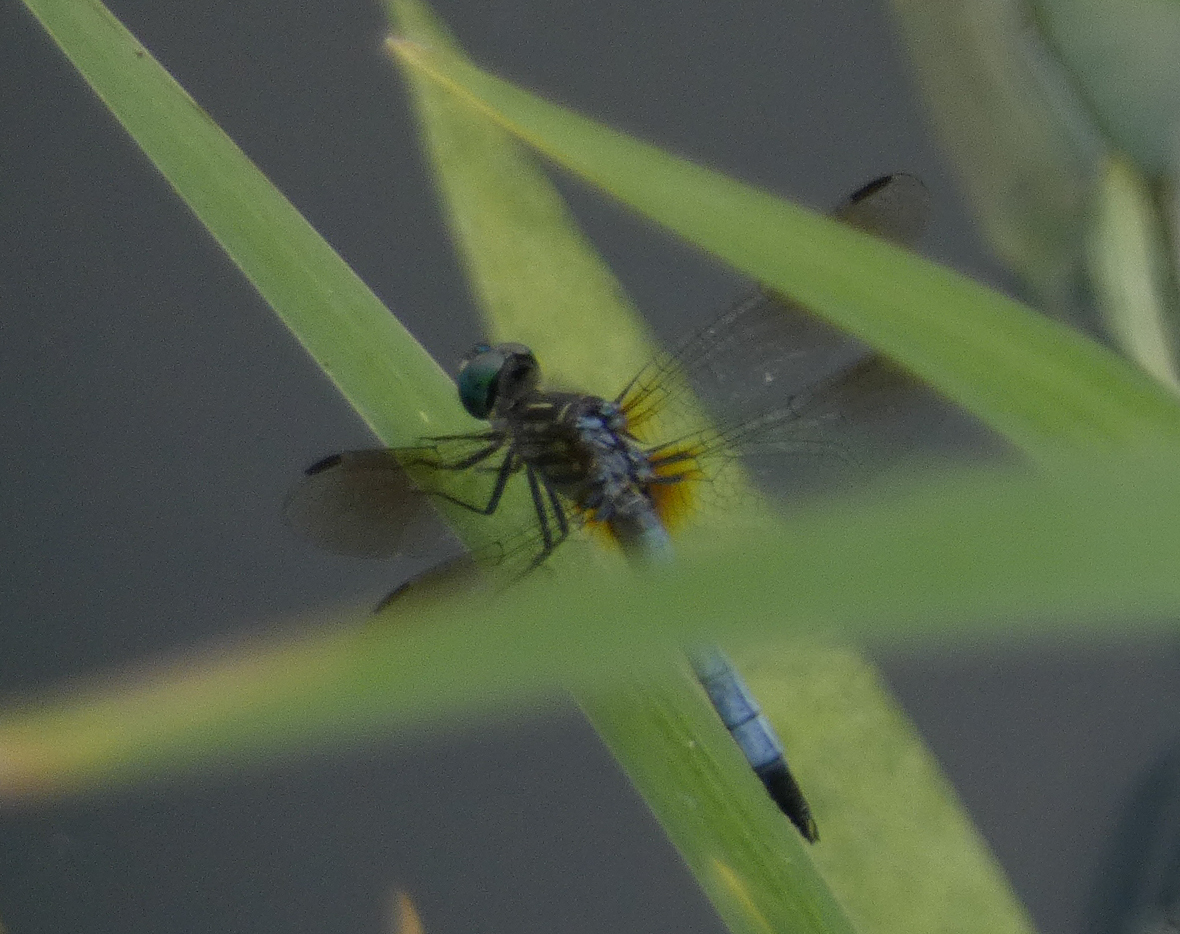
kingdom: Animalia
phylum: Arthropoda
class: Insecta
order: Odonata
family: Libellulidae
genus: Pachydiplax
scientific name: Pachydiplax longipennis
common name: Blue dasher
